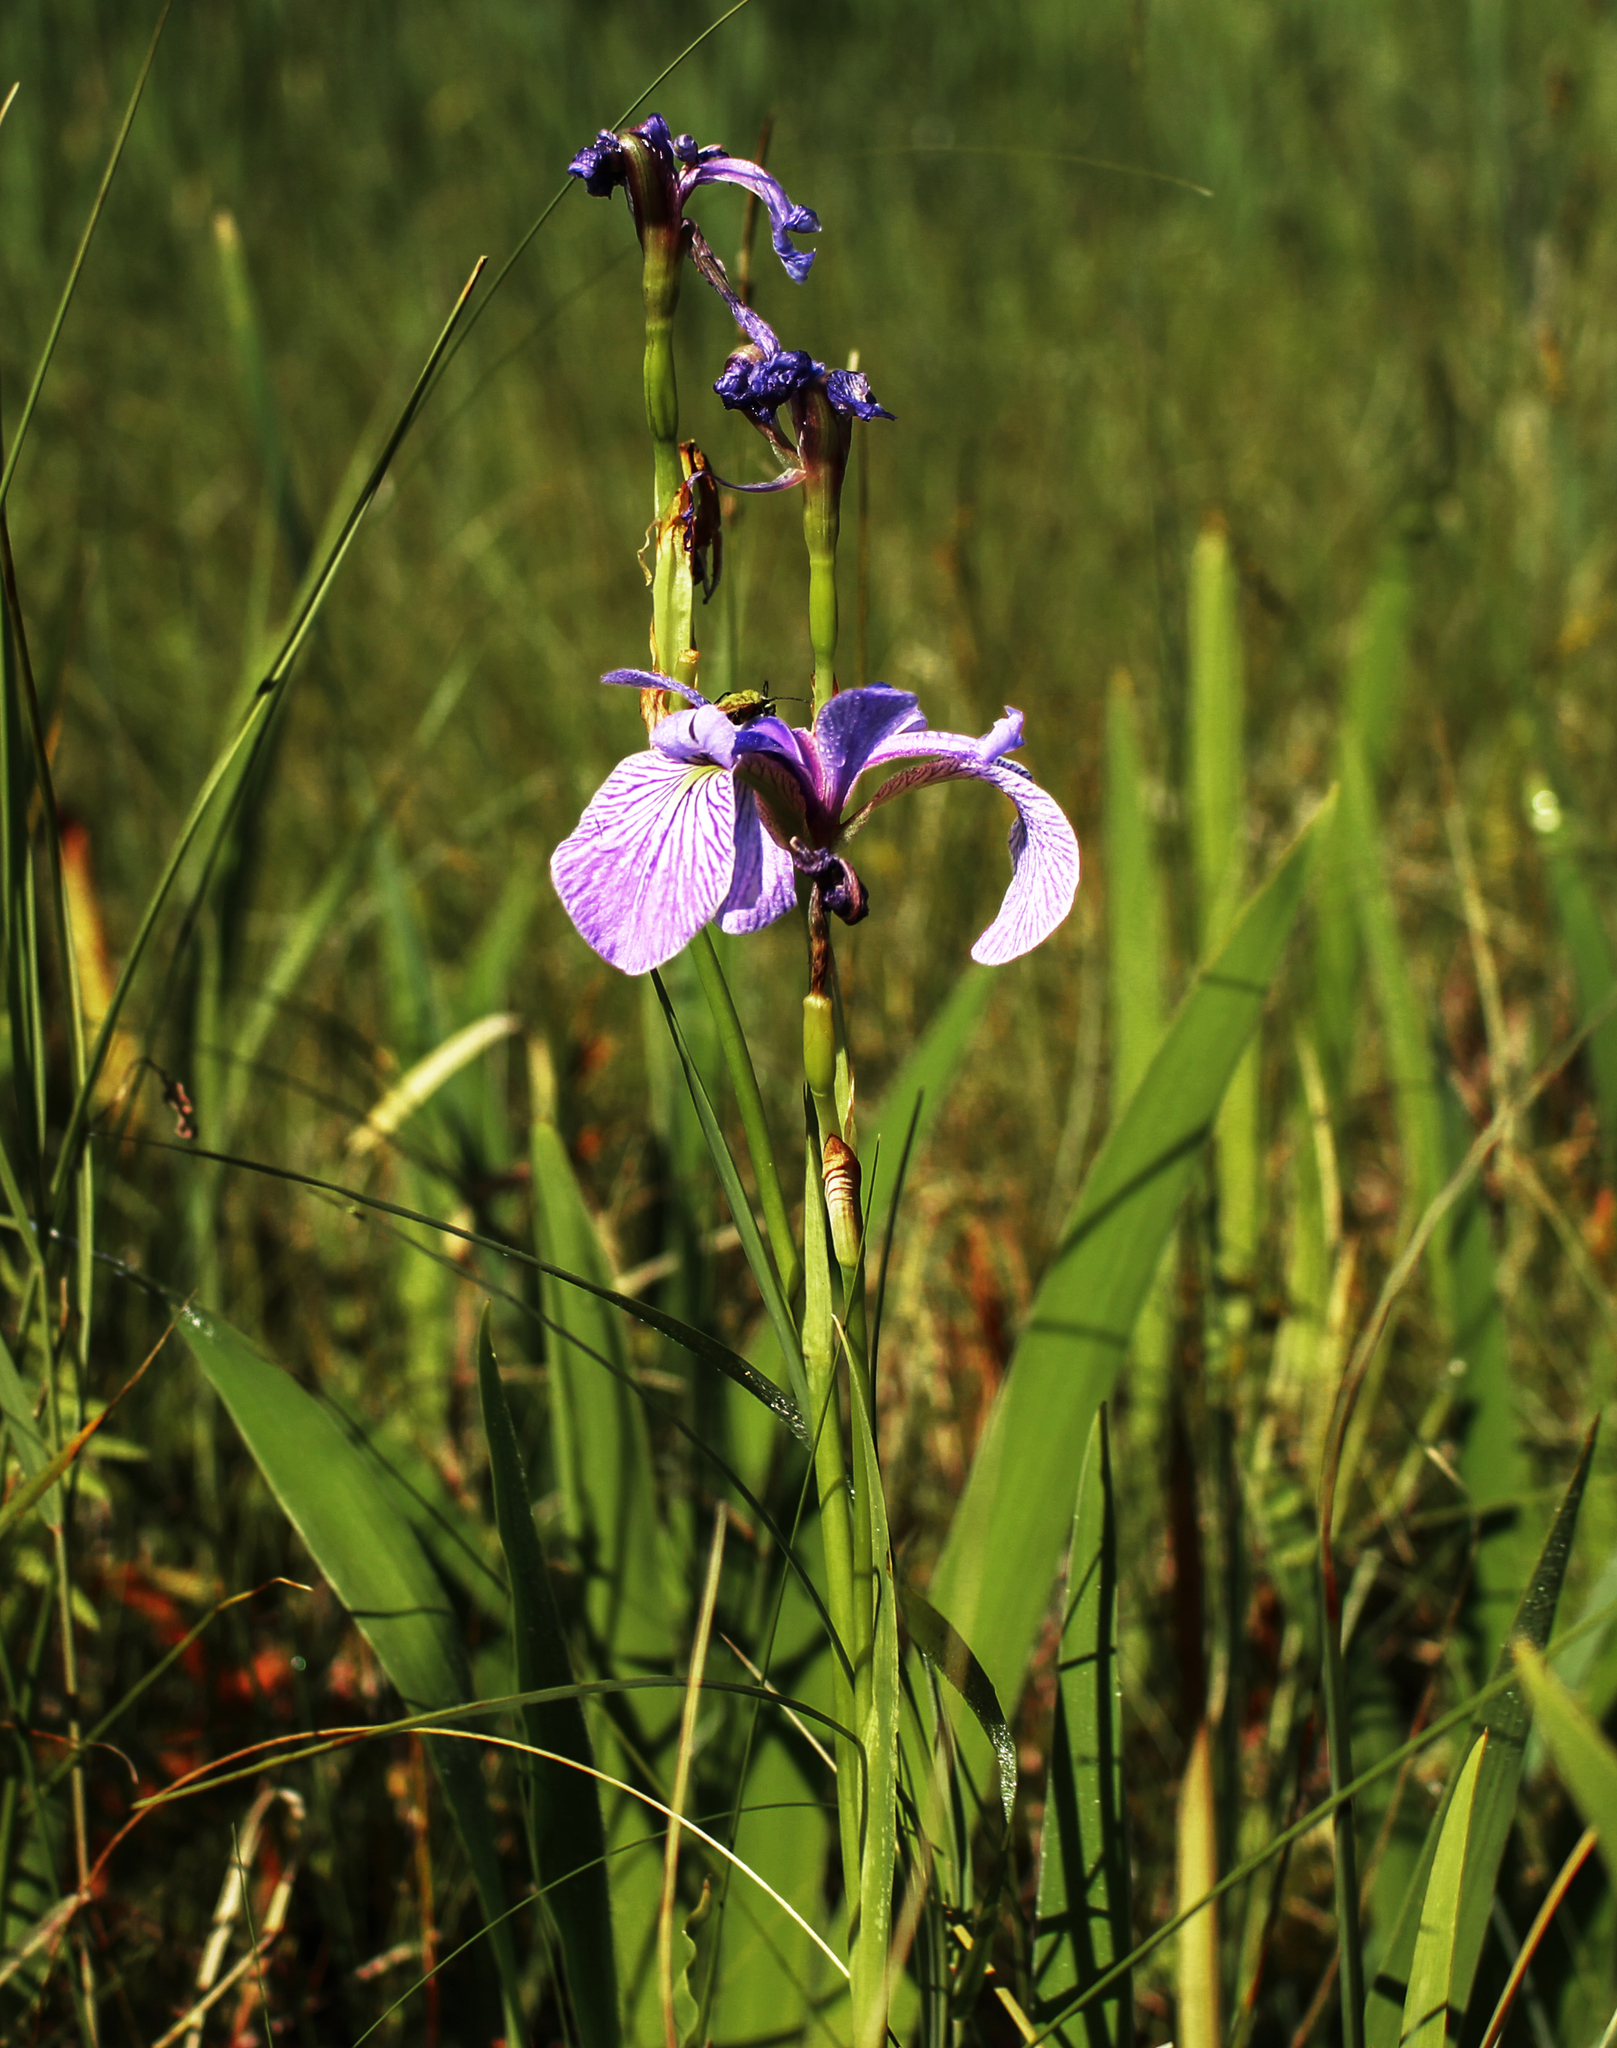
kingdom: Plantae
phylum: Tracheophyta
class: Liliopsida
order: Asparagales
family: Iridaceae
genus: Iris
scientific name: Iris versicolor
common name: Purple iris
